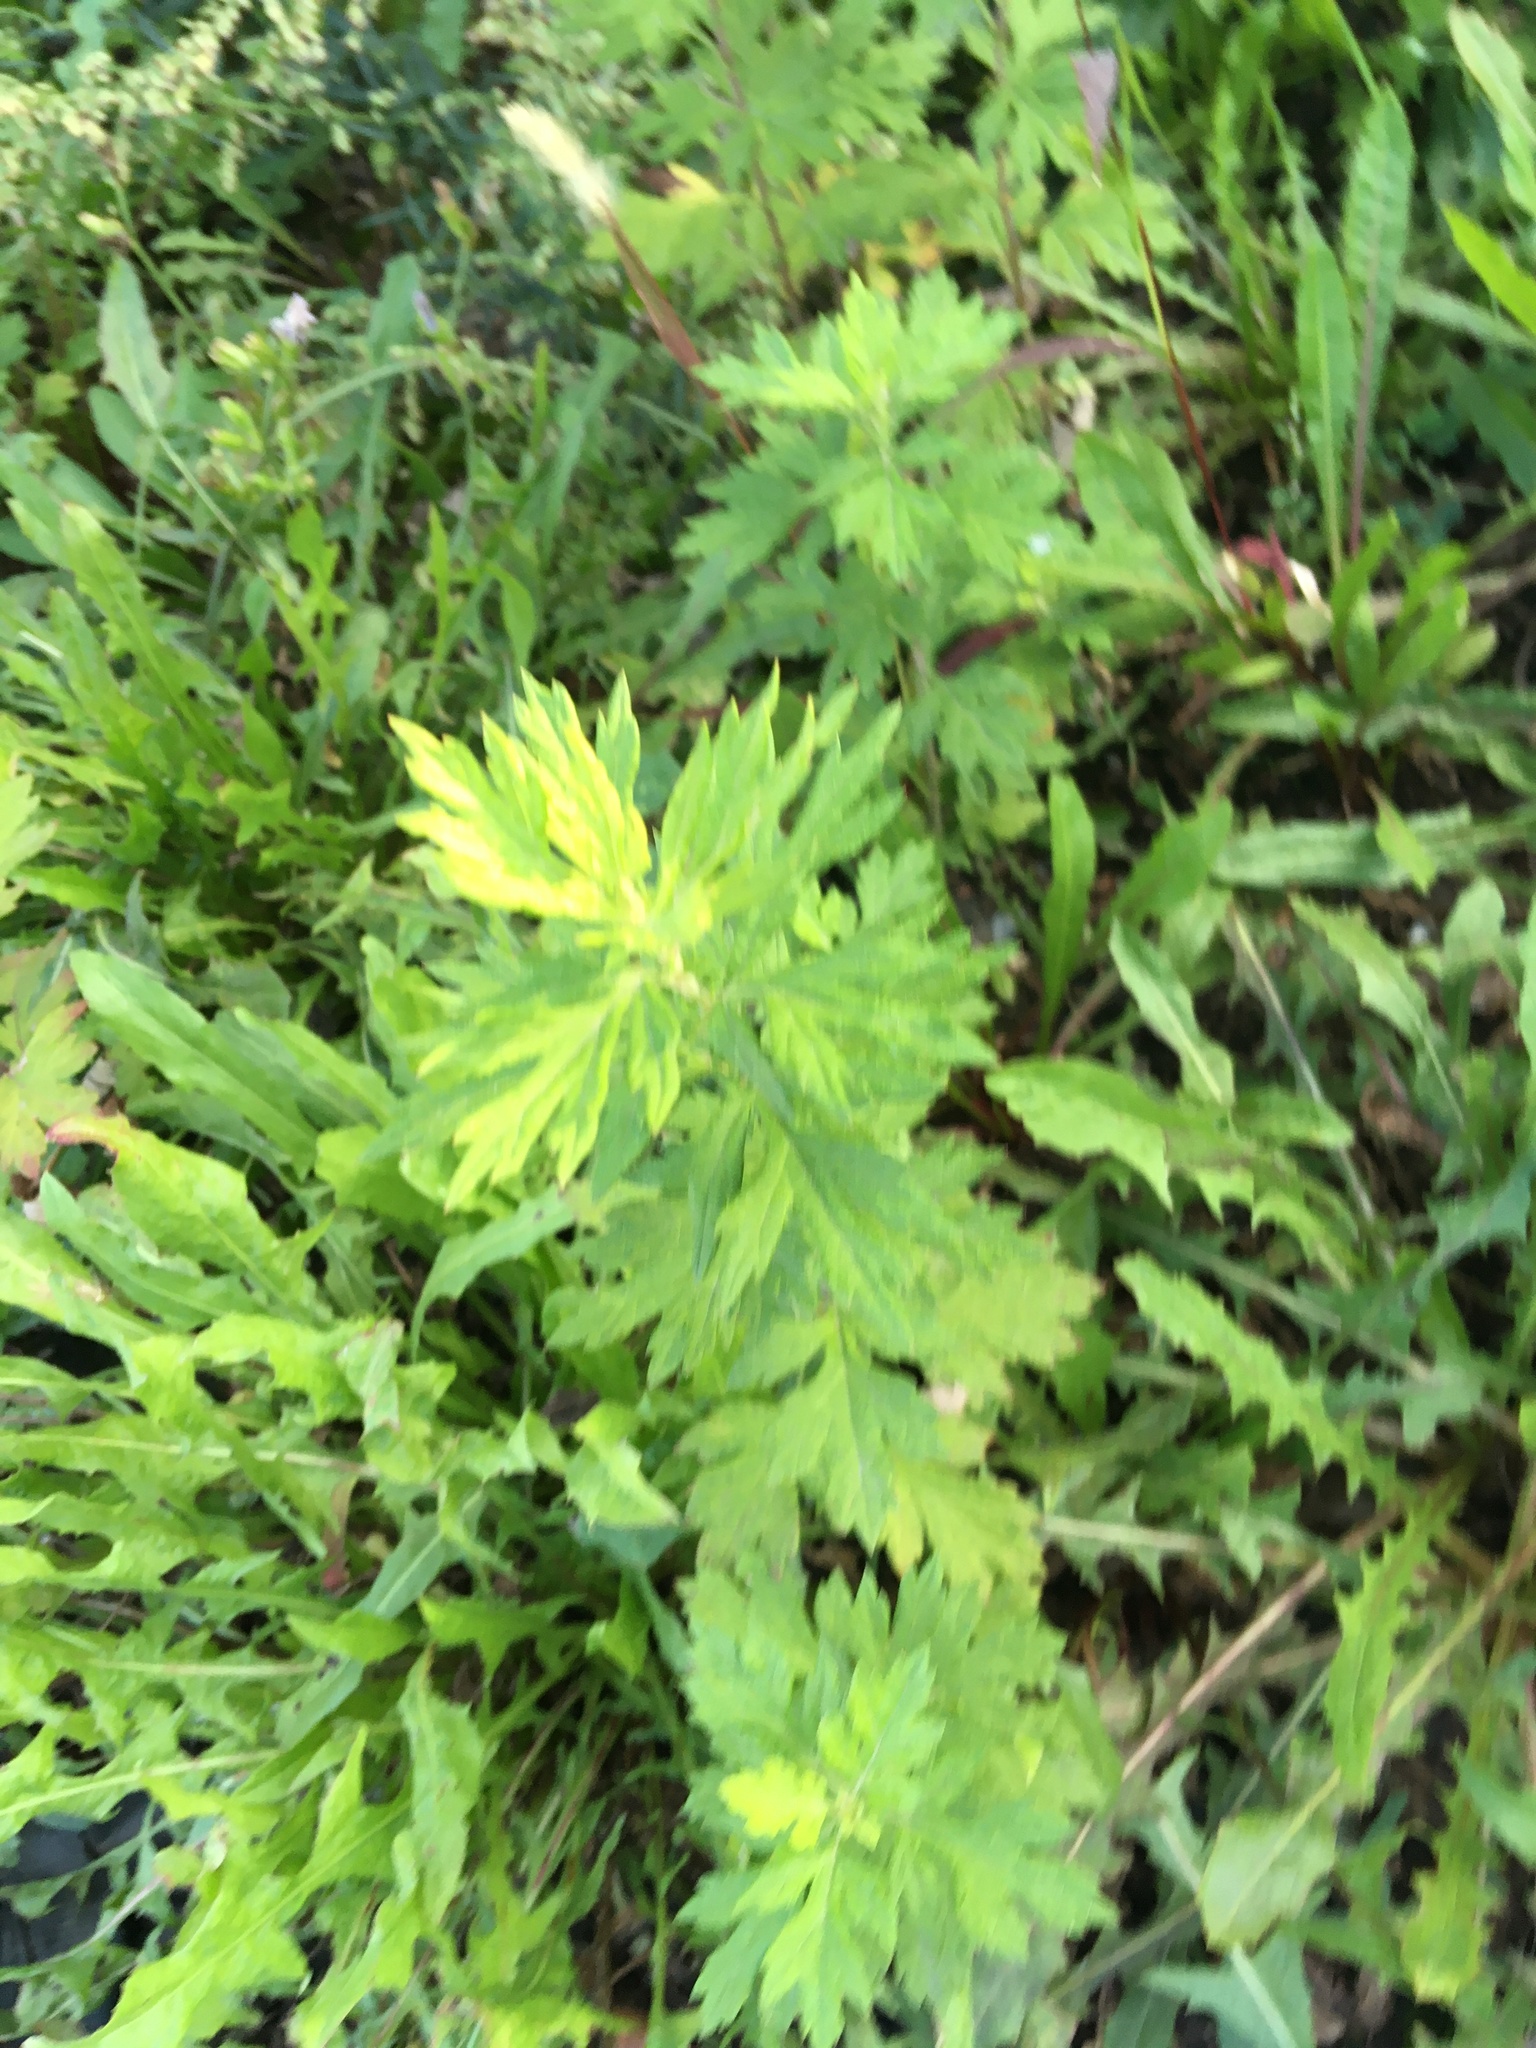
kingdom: Plantae
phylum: Tracheophyta
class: Magnoliopsida
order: Asterales
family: Asteraceae
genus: Artemisia
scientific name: Artemisia vulgaris
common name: Mugwort
